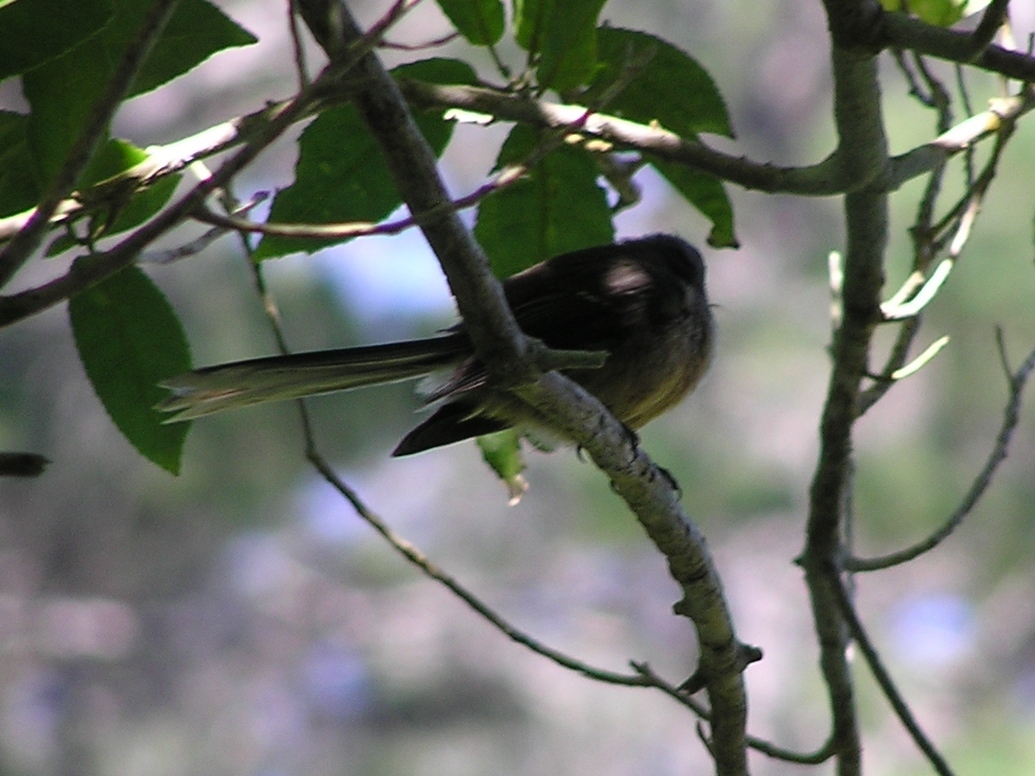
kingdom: Animalia
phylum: Chordata
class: Aves
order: Passeriformes
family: Rhipiduridae
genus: Rhipidura
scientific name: Rhipidura fuliginosa
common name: New zealand fantail
